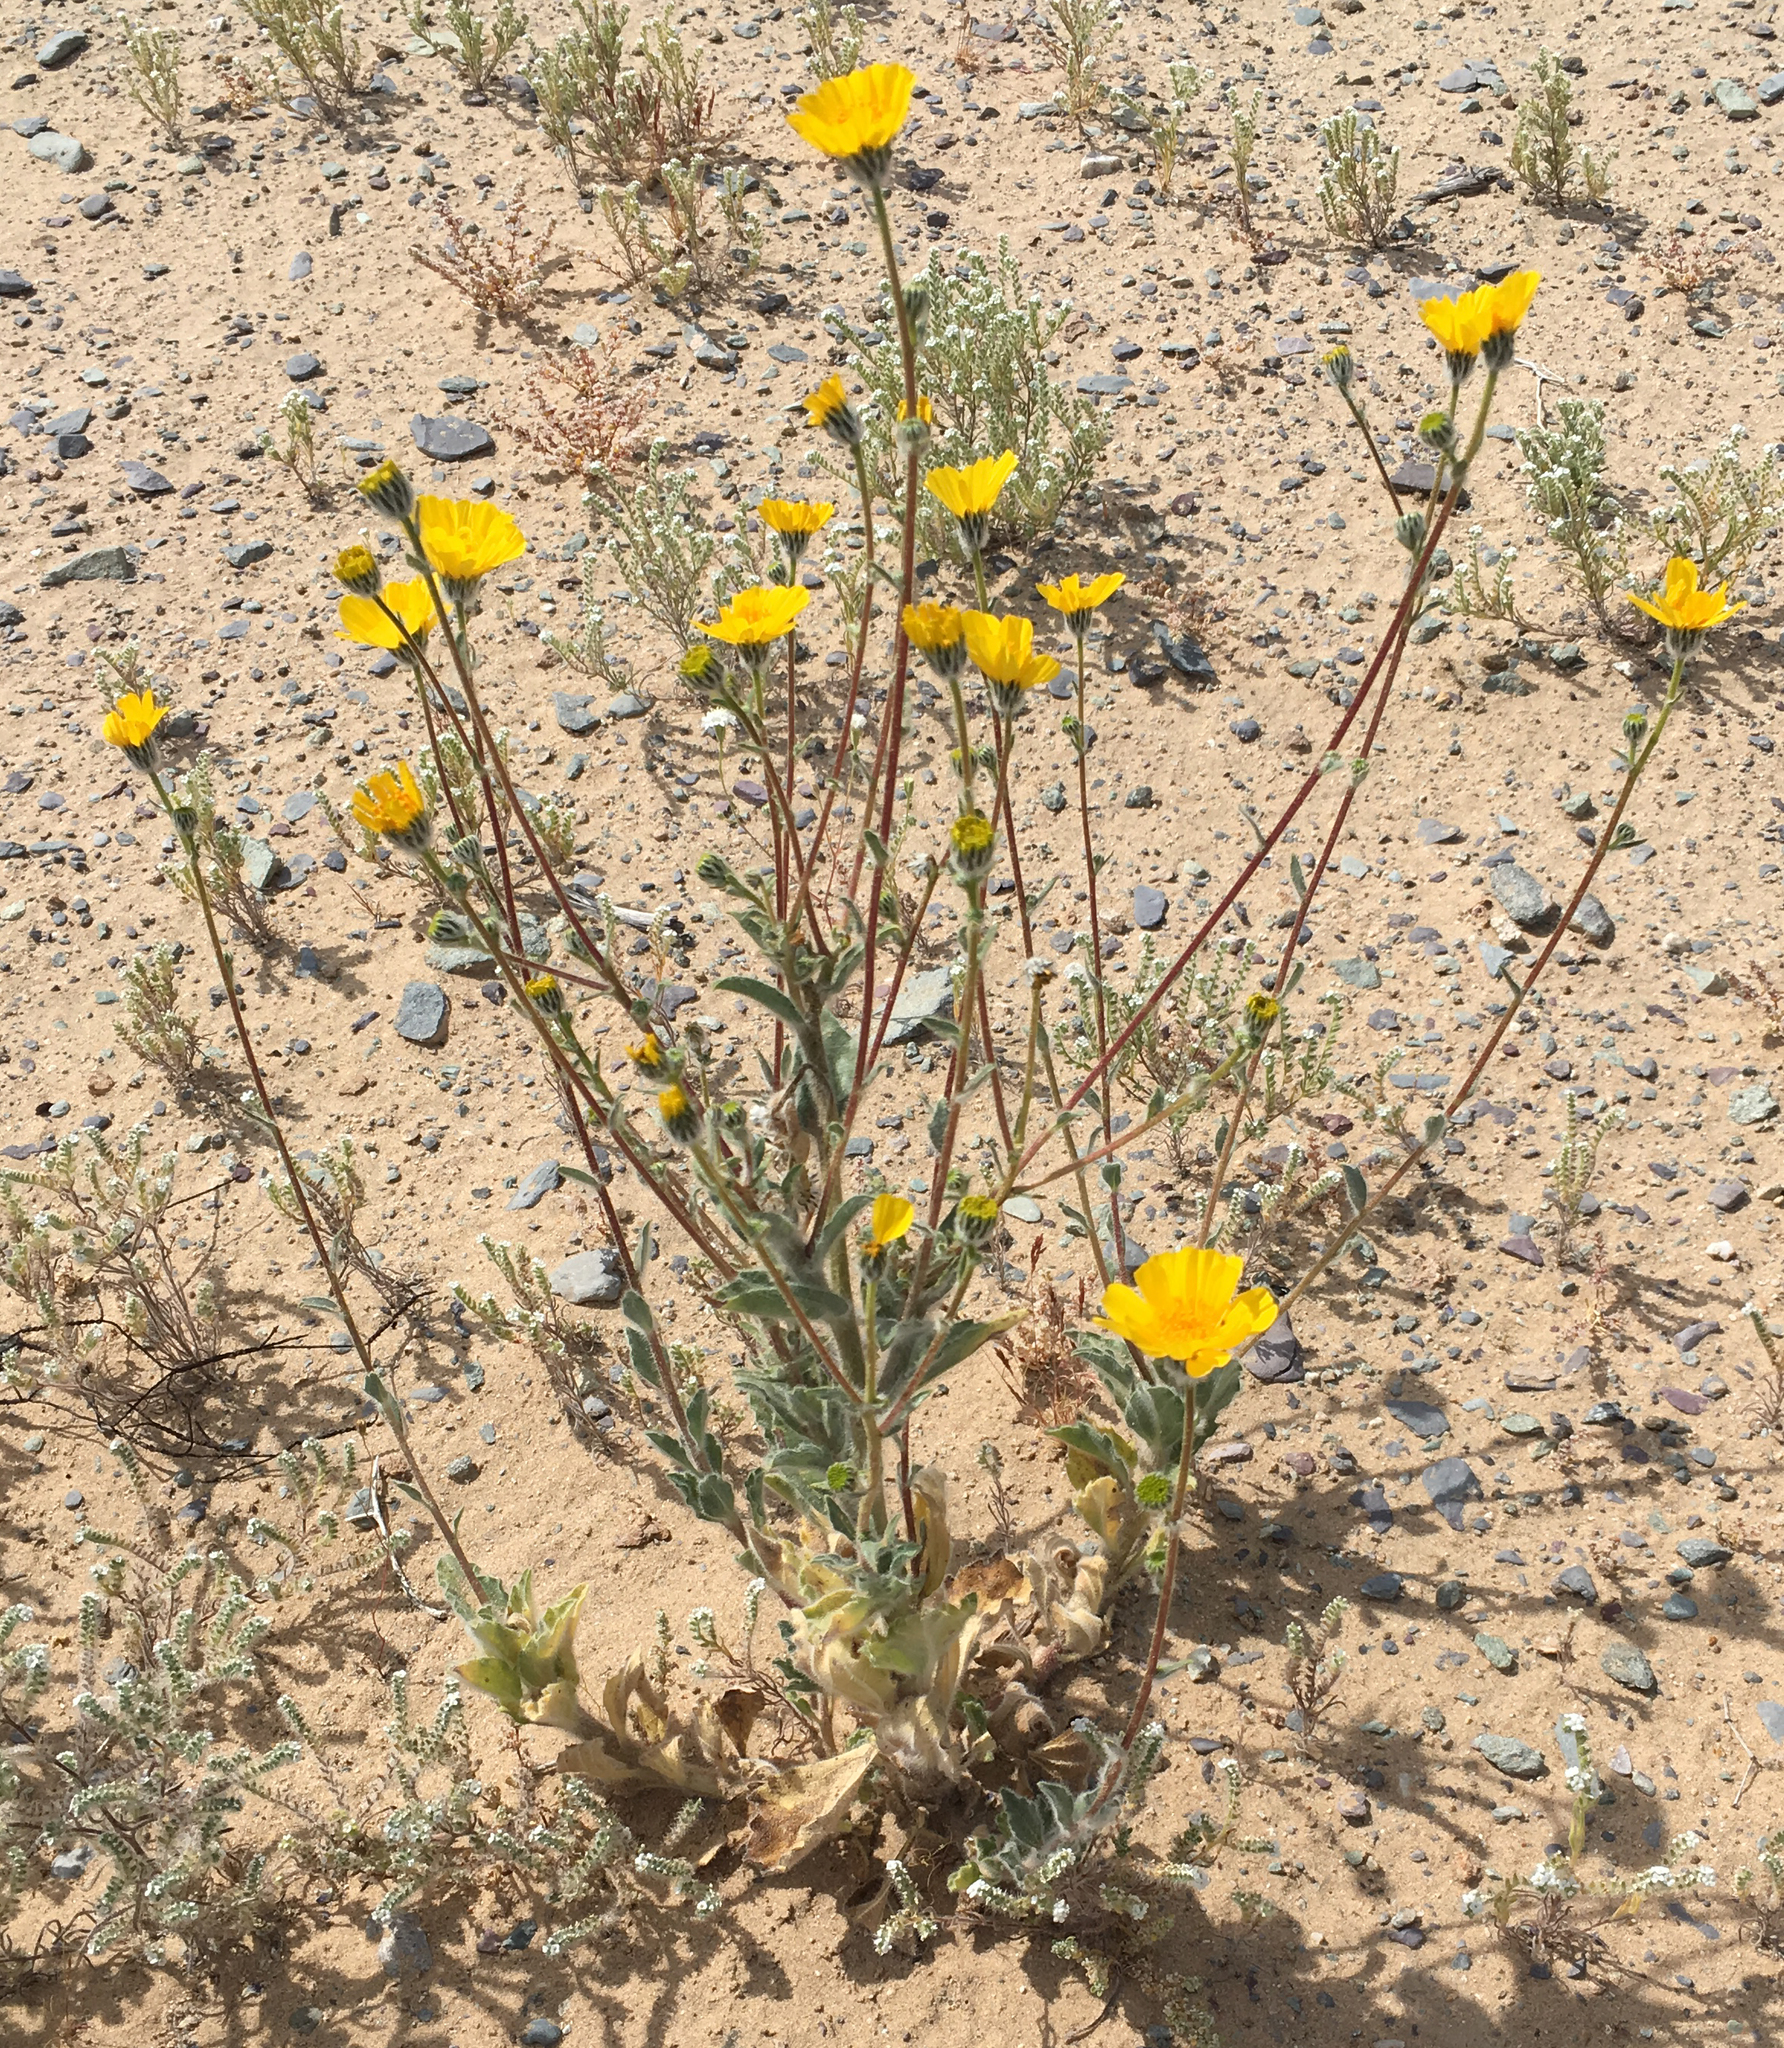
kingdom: Plantae
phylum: Tracheophyta
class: Magnoliopsida
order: Asterales
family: Asteraceae
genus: Geraea
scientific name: Geraea canescens
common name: Desert-gold
